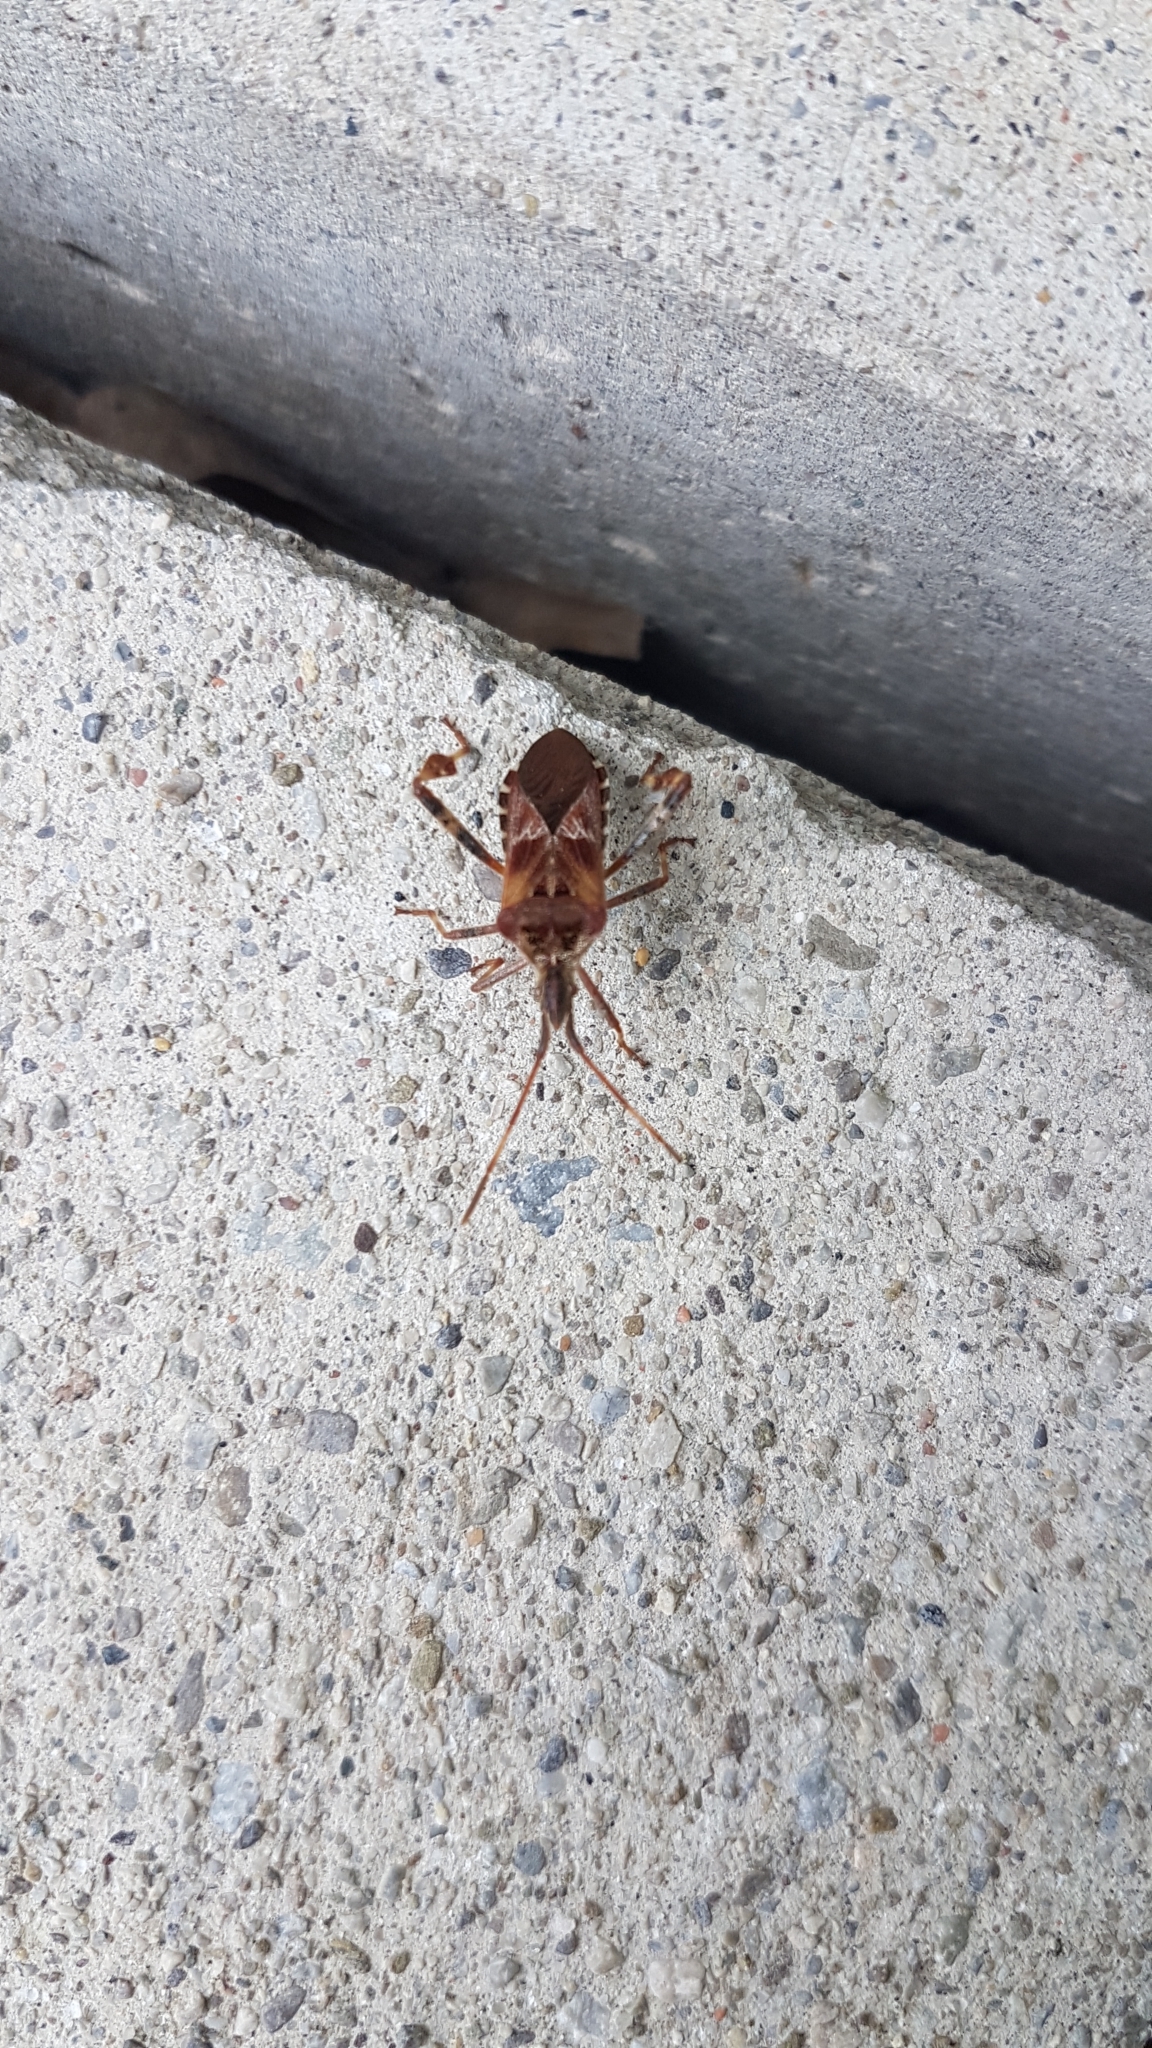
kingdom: Animalia
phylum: Arthropoda
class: Insecta
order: Hemiptera
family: Coreidae
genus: Leptoglossus
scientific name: Leptoglossus occidentalis
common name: Western conifer-seed bug
